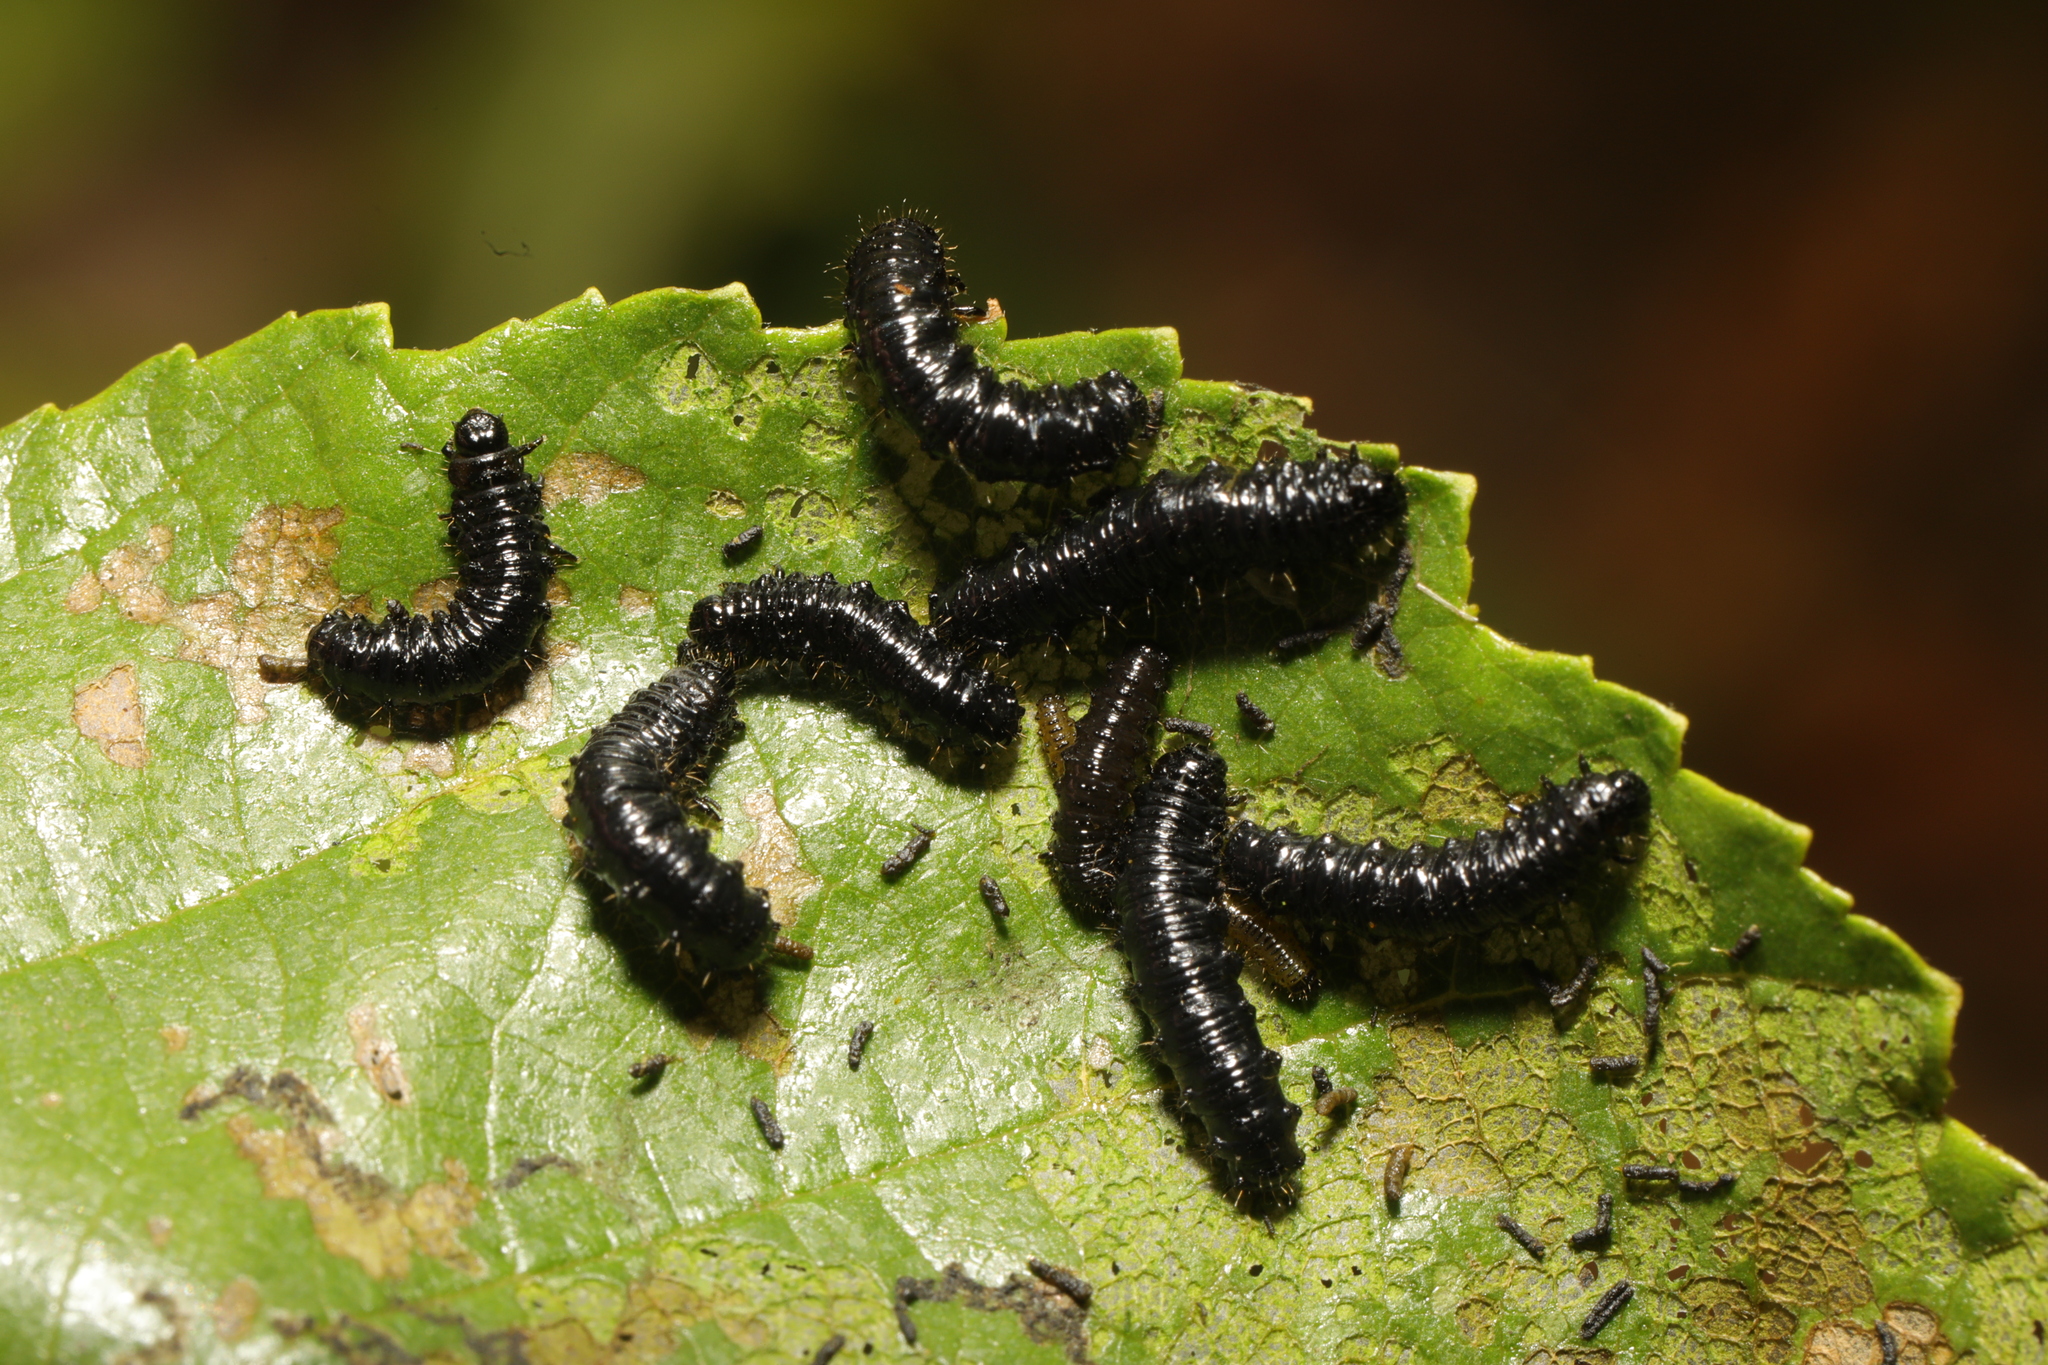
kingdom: Animalia
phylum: Arthropoda
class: Insecta
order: Coleoptera
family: Chrysomelidae
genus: Agelastica
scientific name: Agelastica alni
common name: Alder leaf beetle
